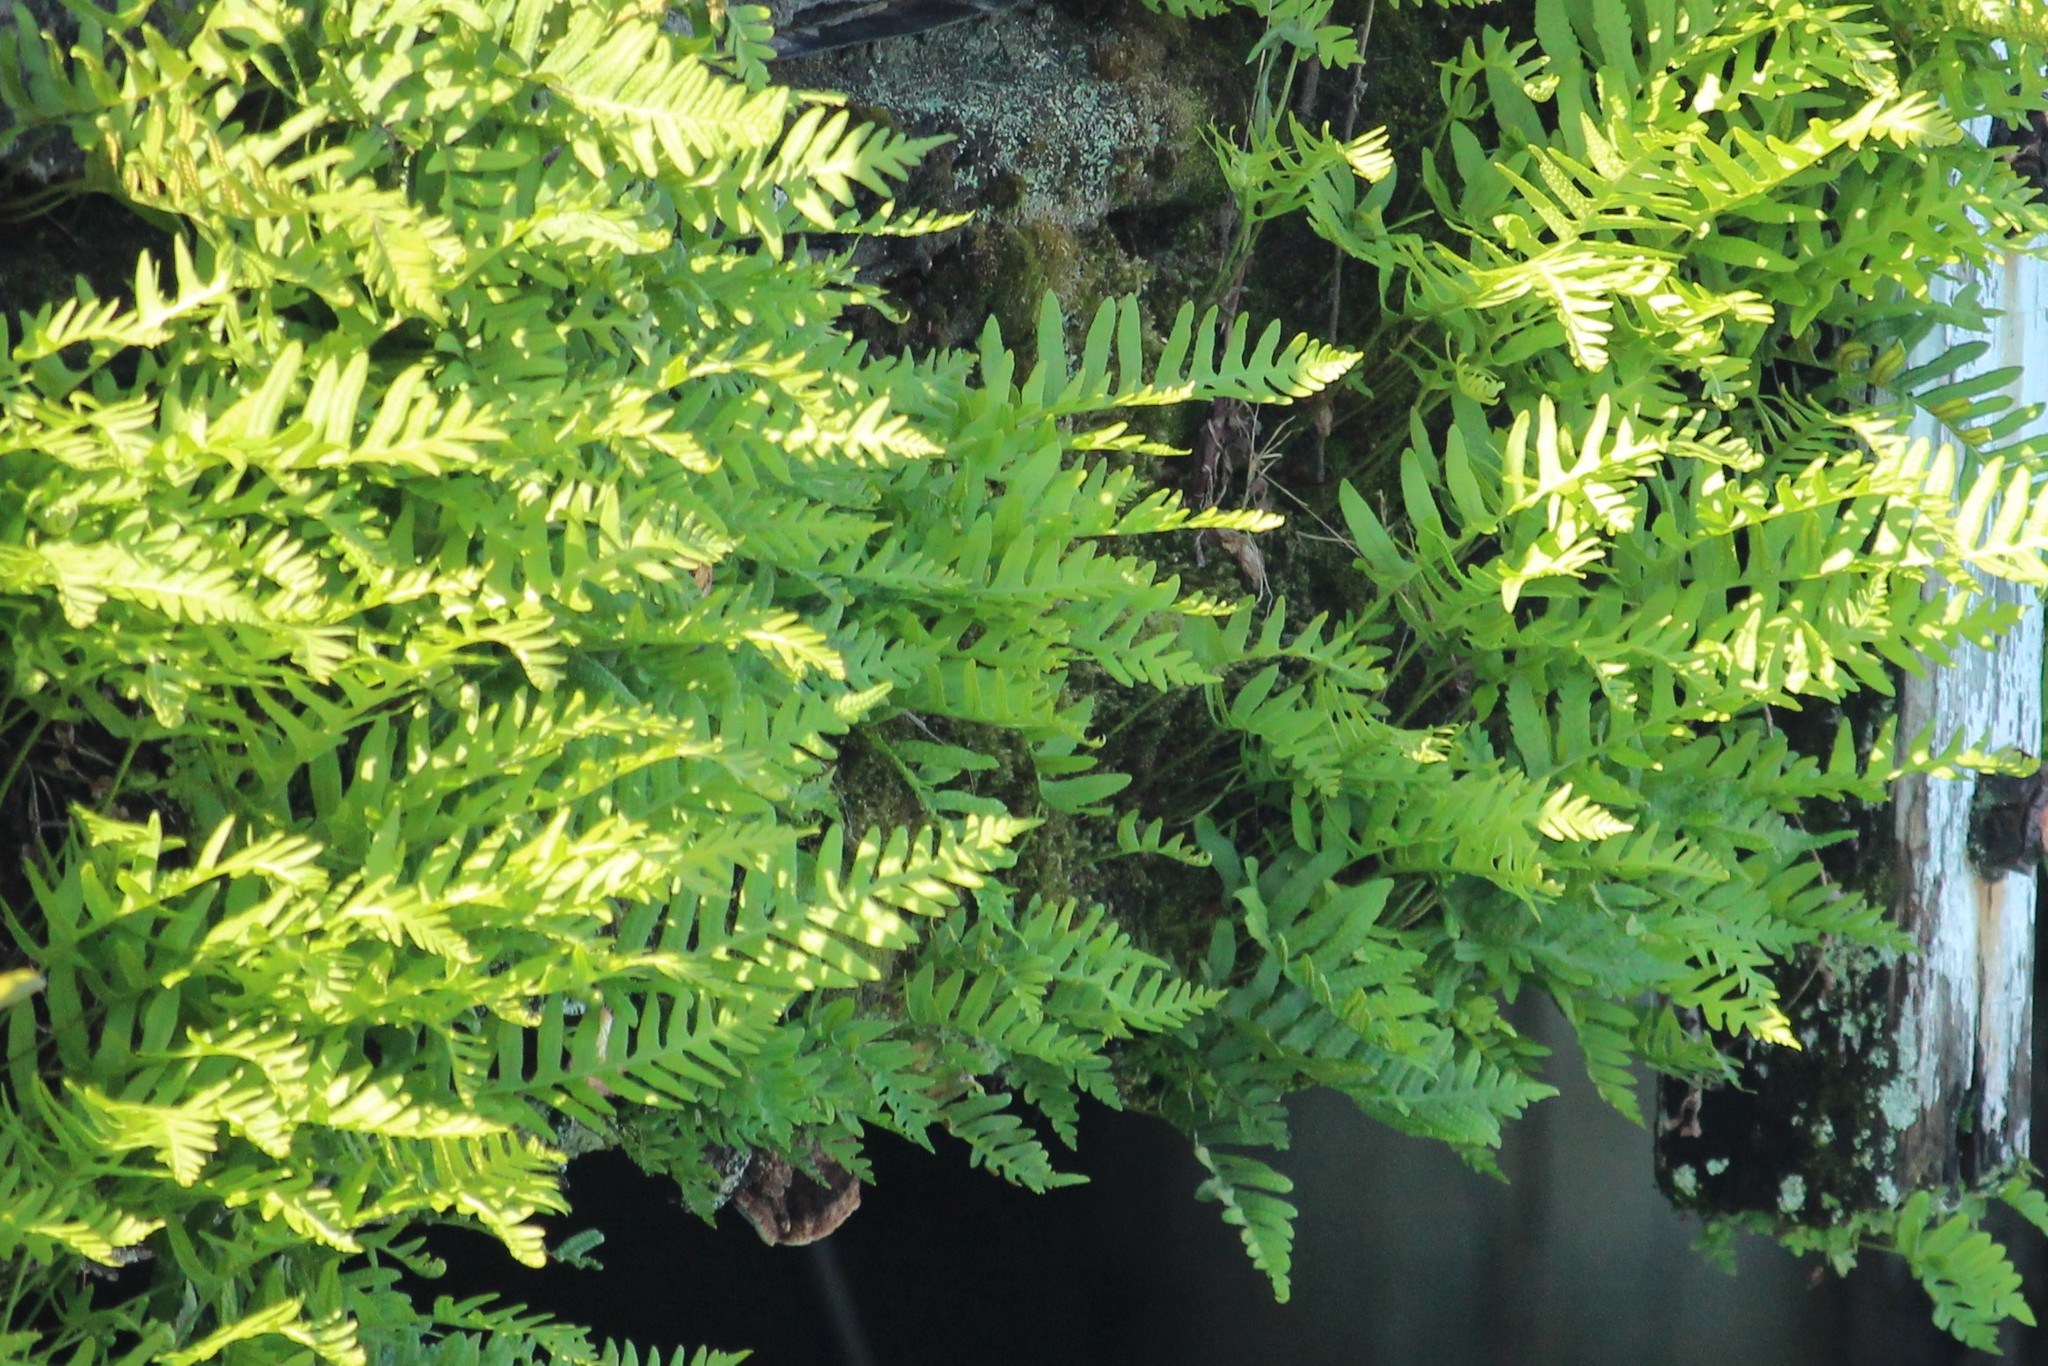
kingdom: Plantae
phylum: Tracheophyta
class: Polypodiopsida
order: Polypodiales
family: Polypodiaceae
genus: Polypodium
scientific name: Polypodium vulgare
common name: Common polypody
